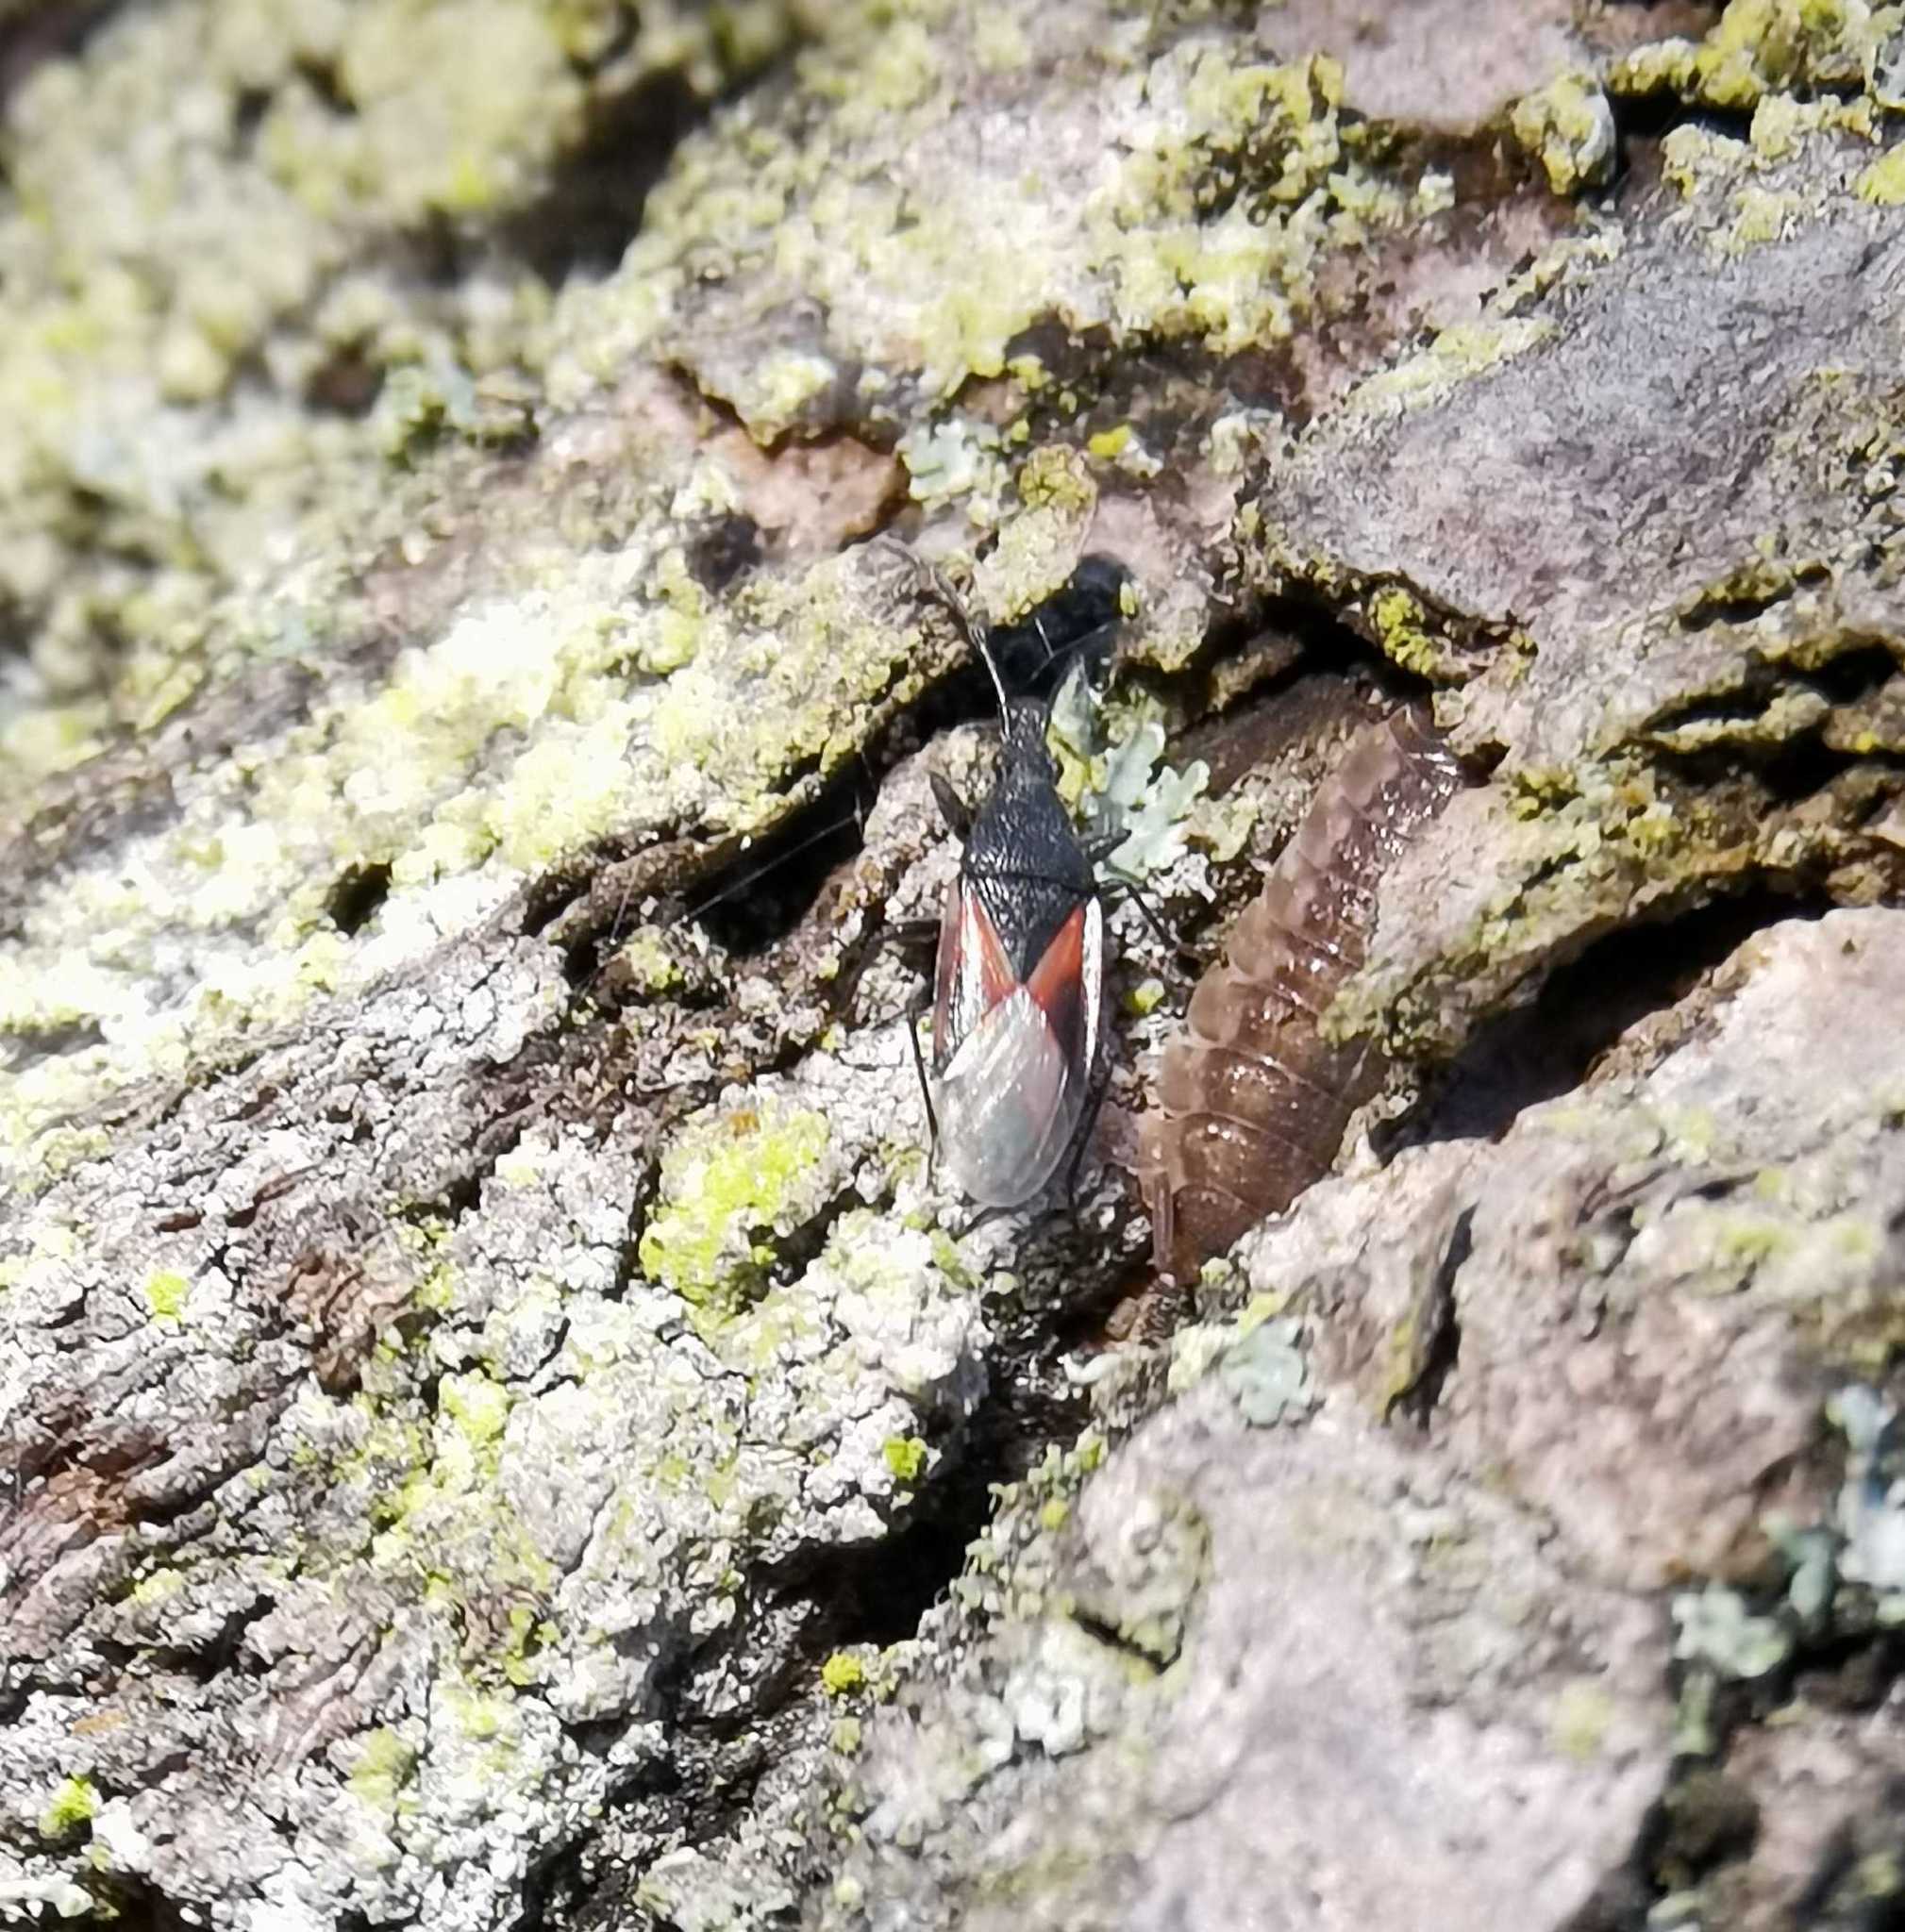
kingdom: Animalia
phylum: Arthropoda
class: Insecta
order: Hemiptera
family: Oxycarenidae
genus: Oxycarenus
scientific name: Oxycarenus lavaterae
